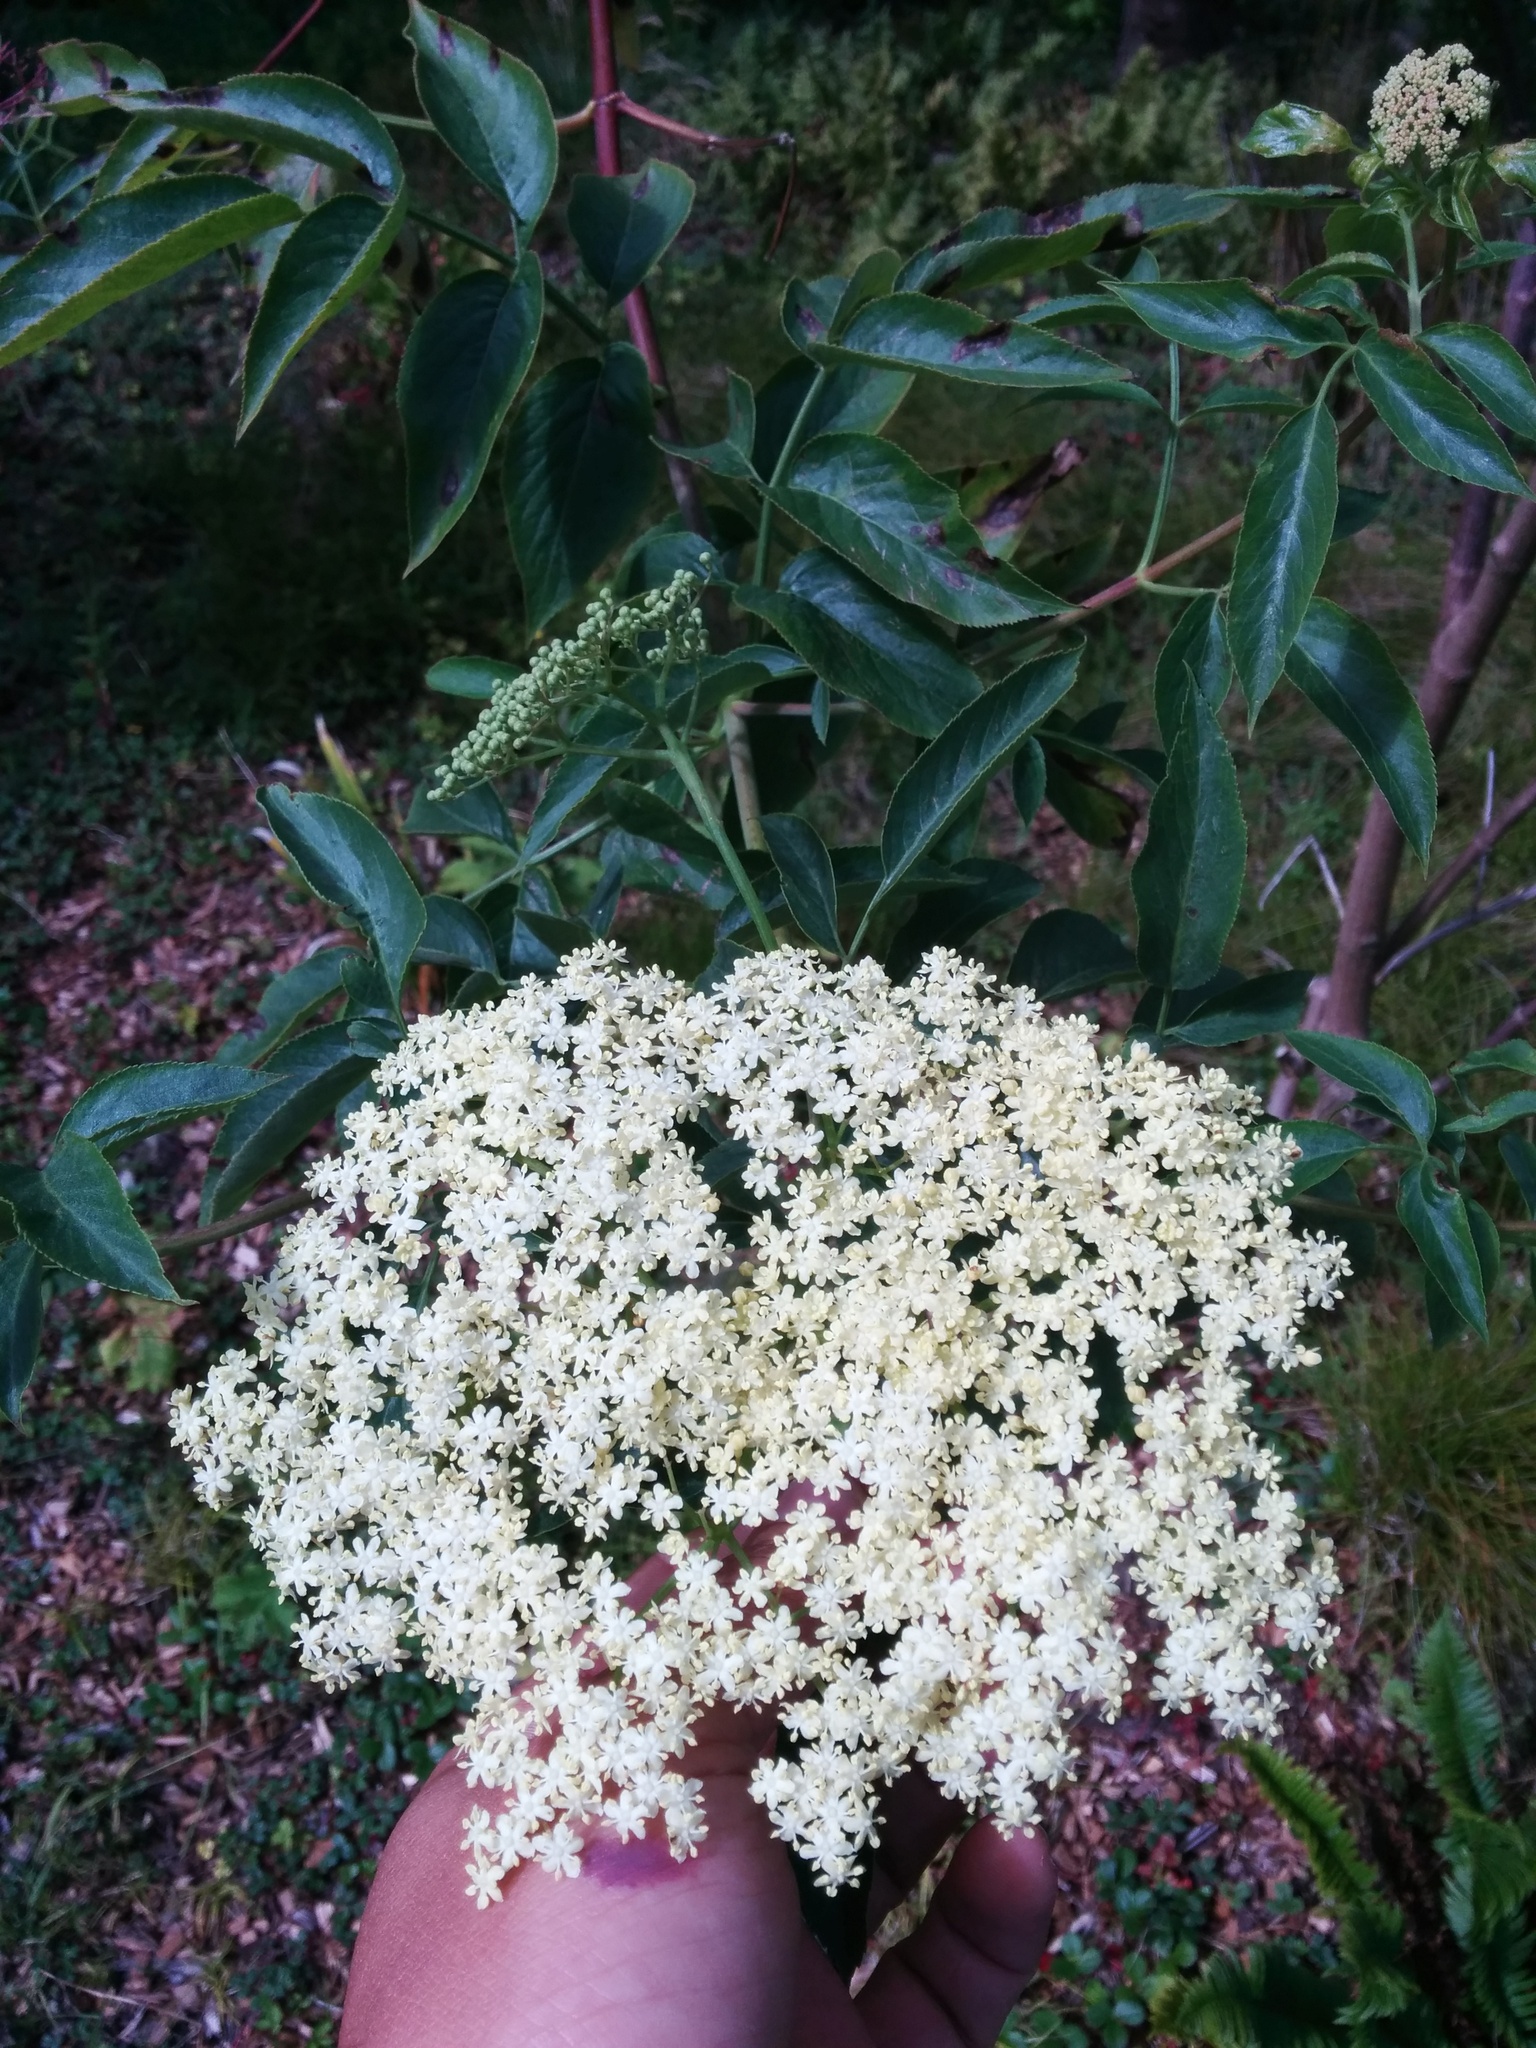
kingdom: Plantae
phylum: Tracheophyta
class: Magnoliopsida
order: Dipsacales
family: Viburnaceae
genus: Sambucus
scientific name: Sambucus cerulea
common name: Blue elder
